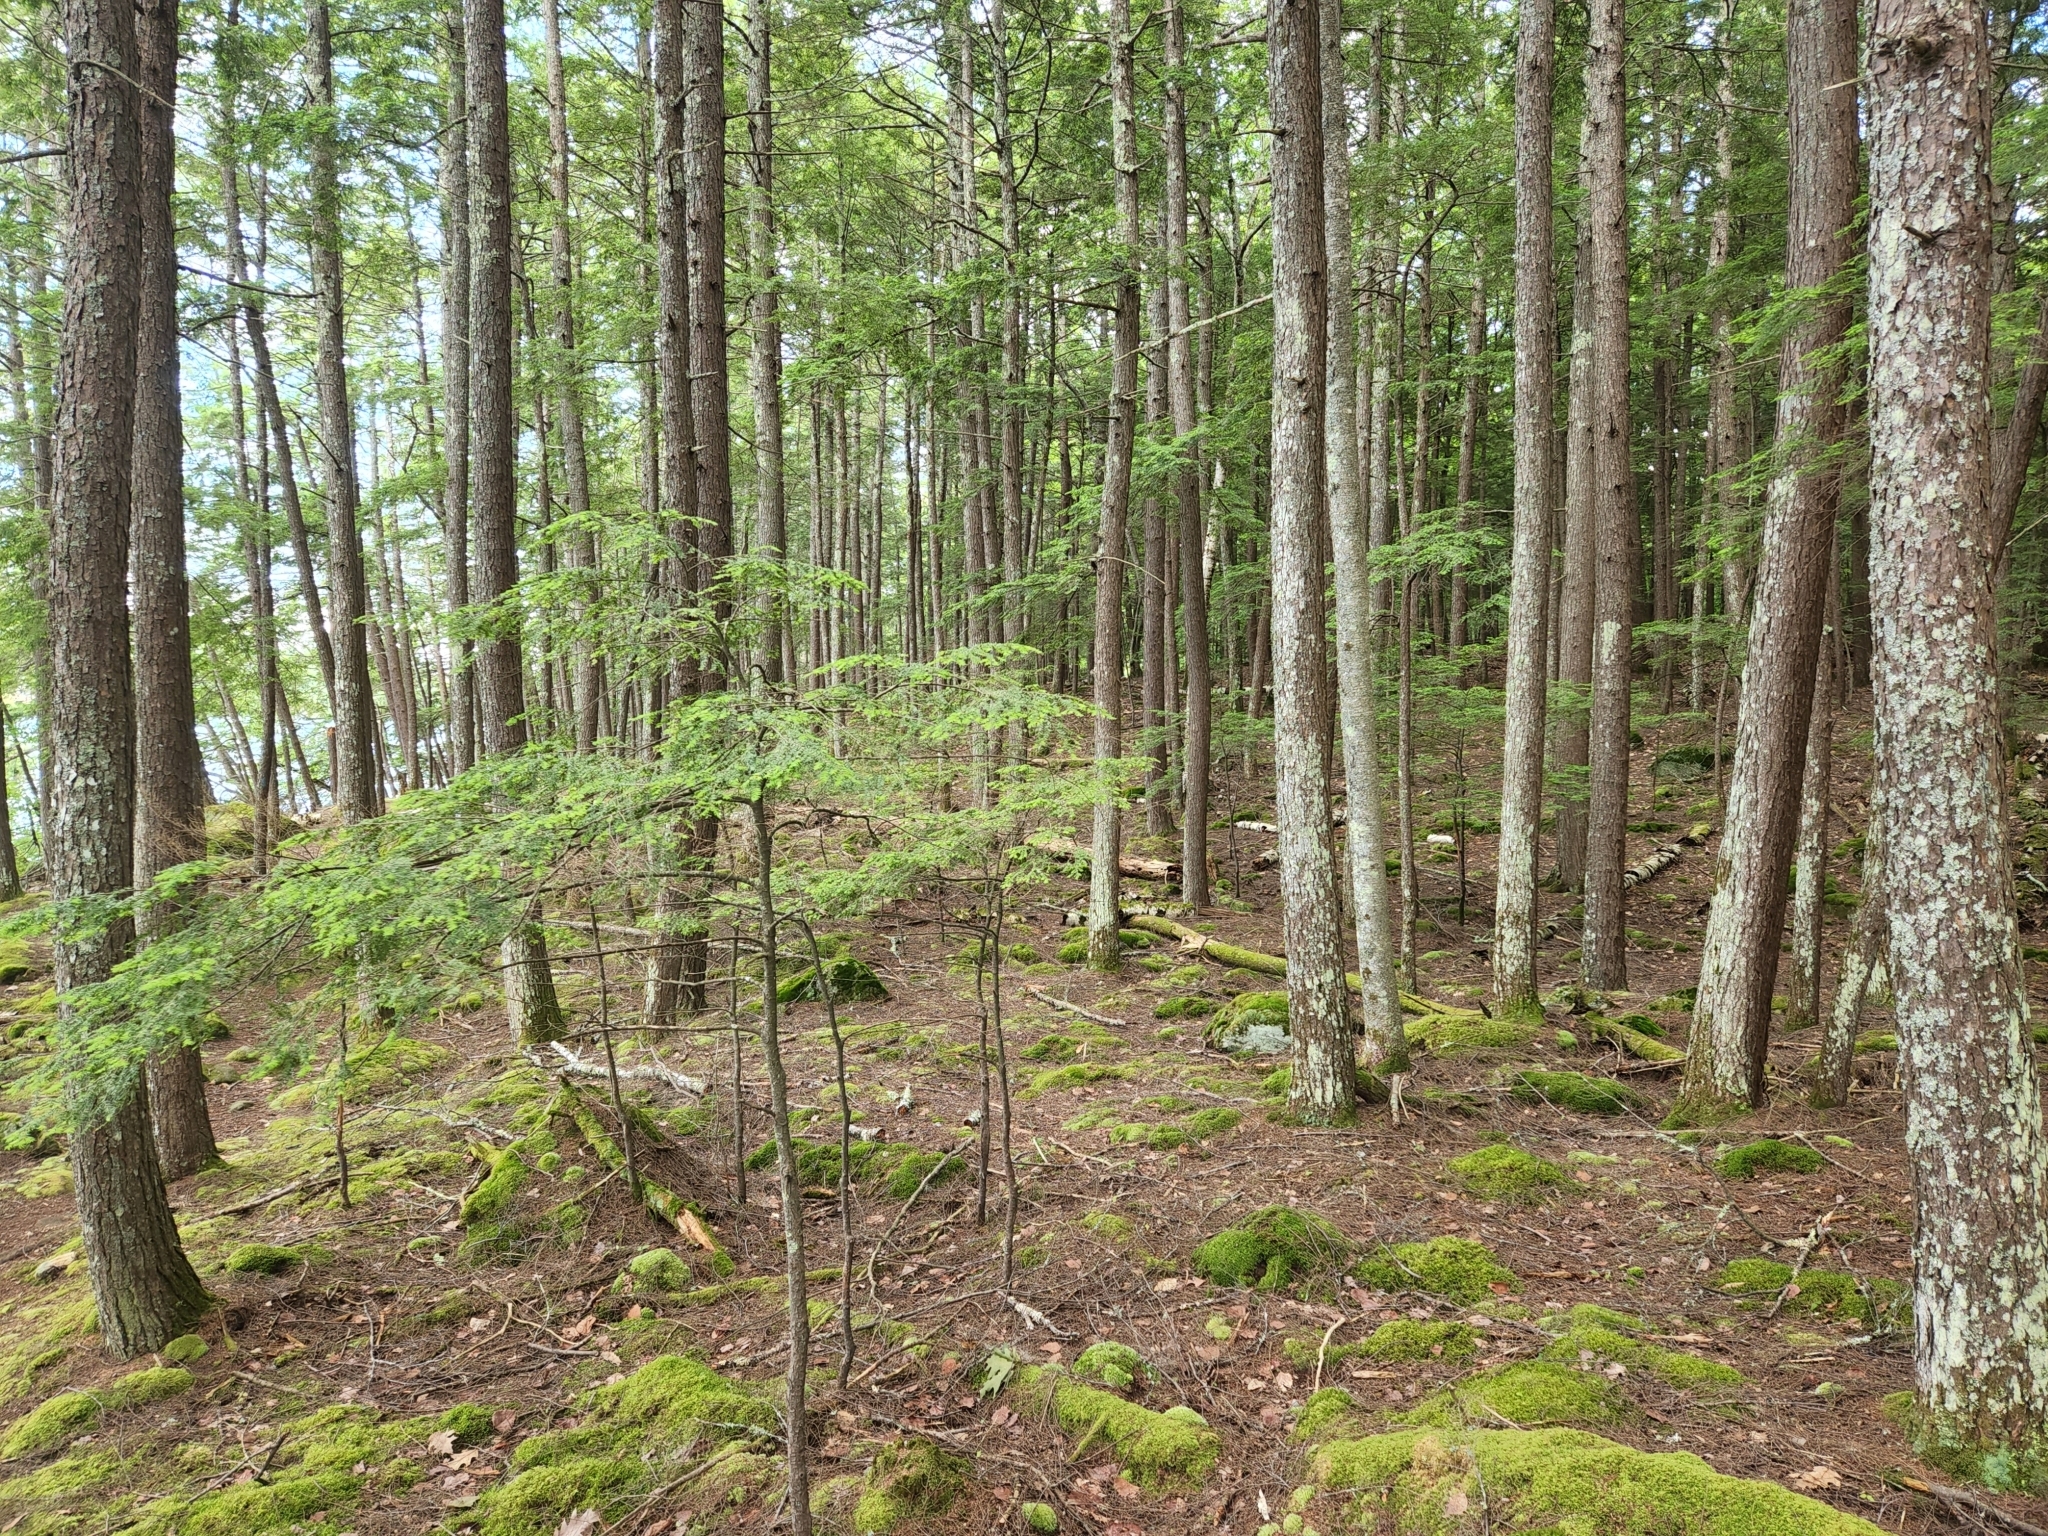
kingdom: Plantae
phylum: Tracheophyta
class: Pinopsida
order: Pinales
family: Pinaceae
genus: Tsuga
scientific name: Tsuga canadensis
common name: Eastern hemlock
